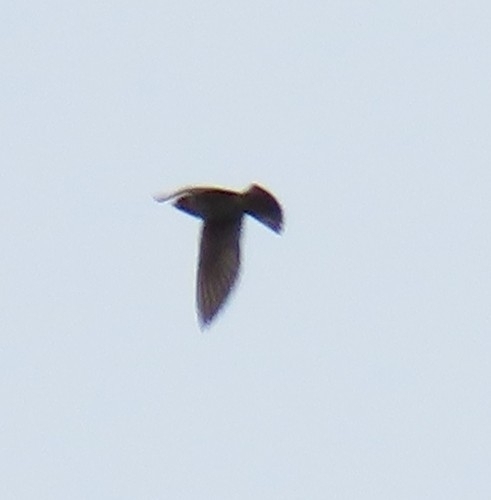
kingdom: Animalia
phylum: Chordata
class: Aves
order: Passeriformes
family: Hirundinidae
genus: Petrochelidon
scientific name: Petrochelidon pyrrhonota
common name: American cliff swallow
